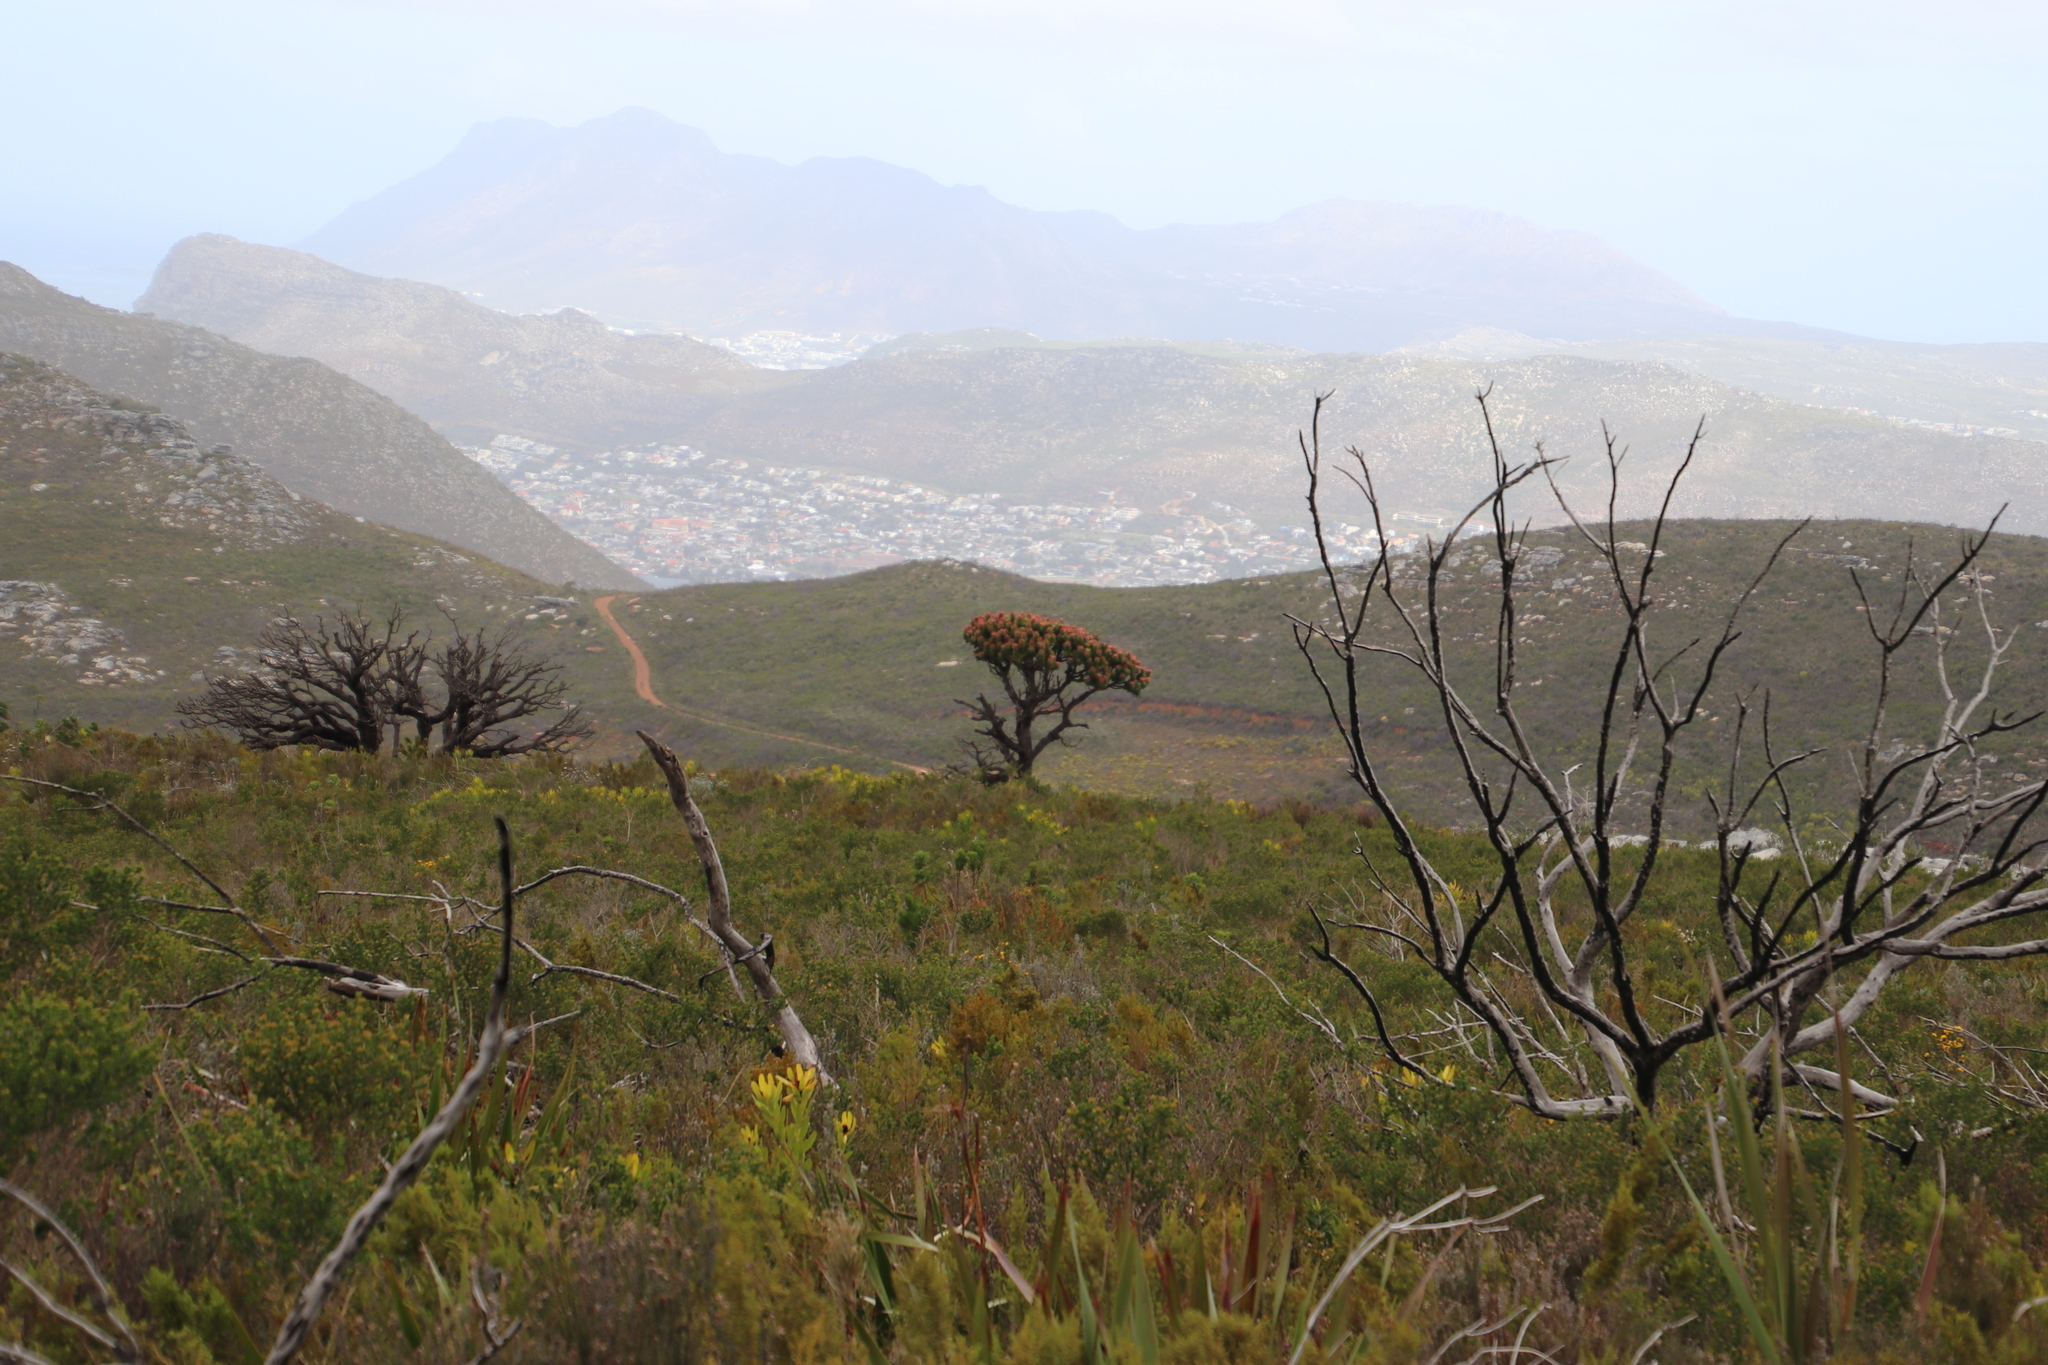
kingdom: Plantae
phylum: Tracheophyta
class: Magnoliopsida
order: Proteales
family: Proteaceae
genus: Mimetes
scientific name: Mimetes fimbriifolius
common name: Fringed bottlebrush
